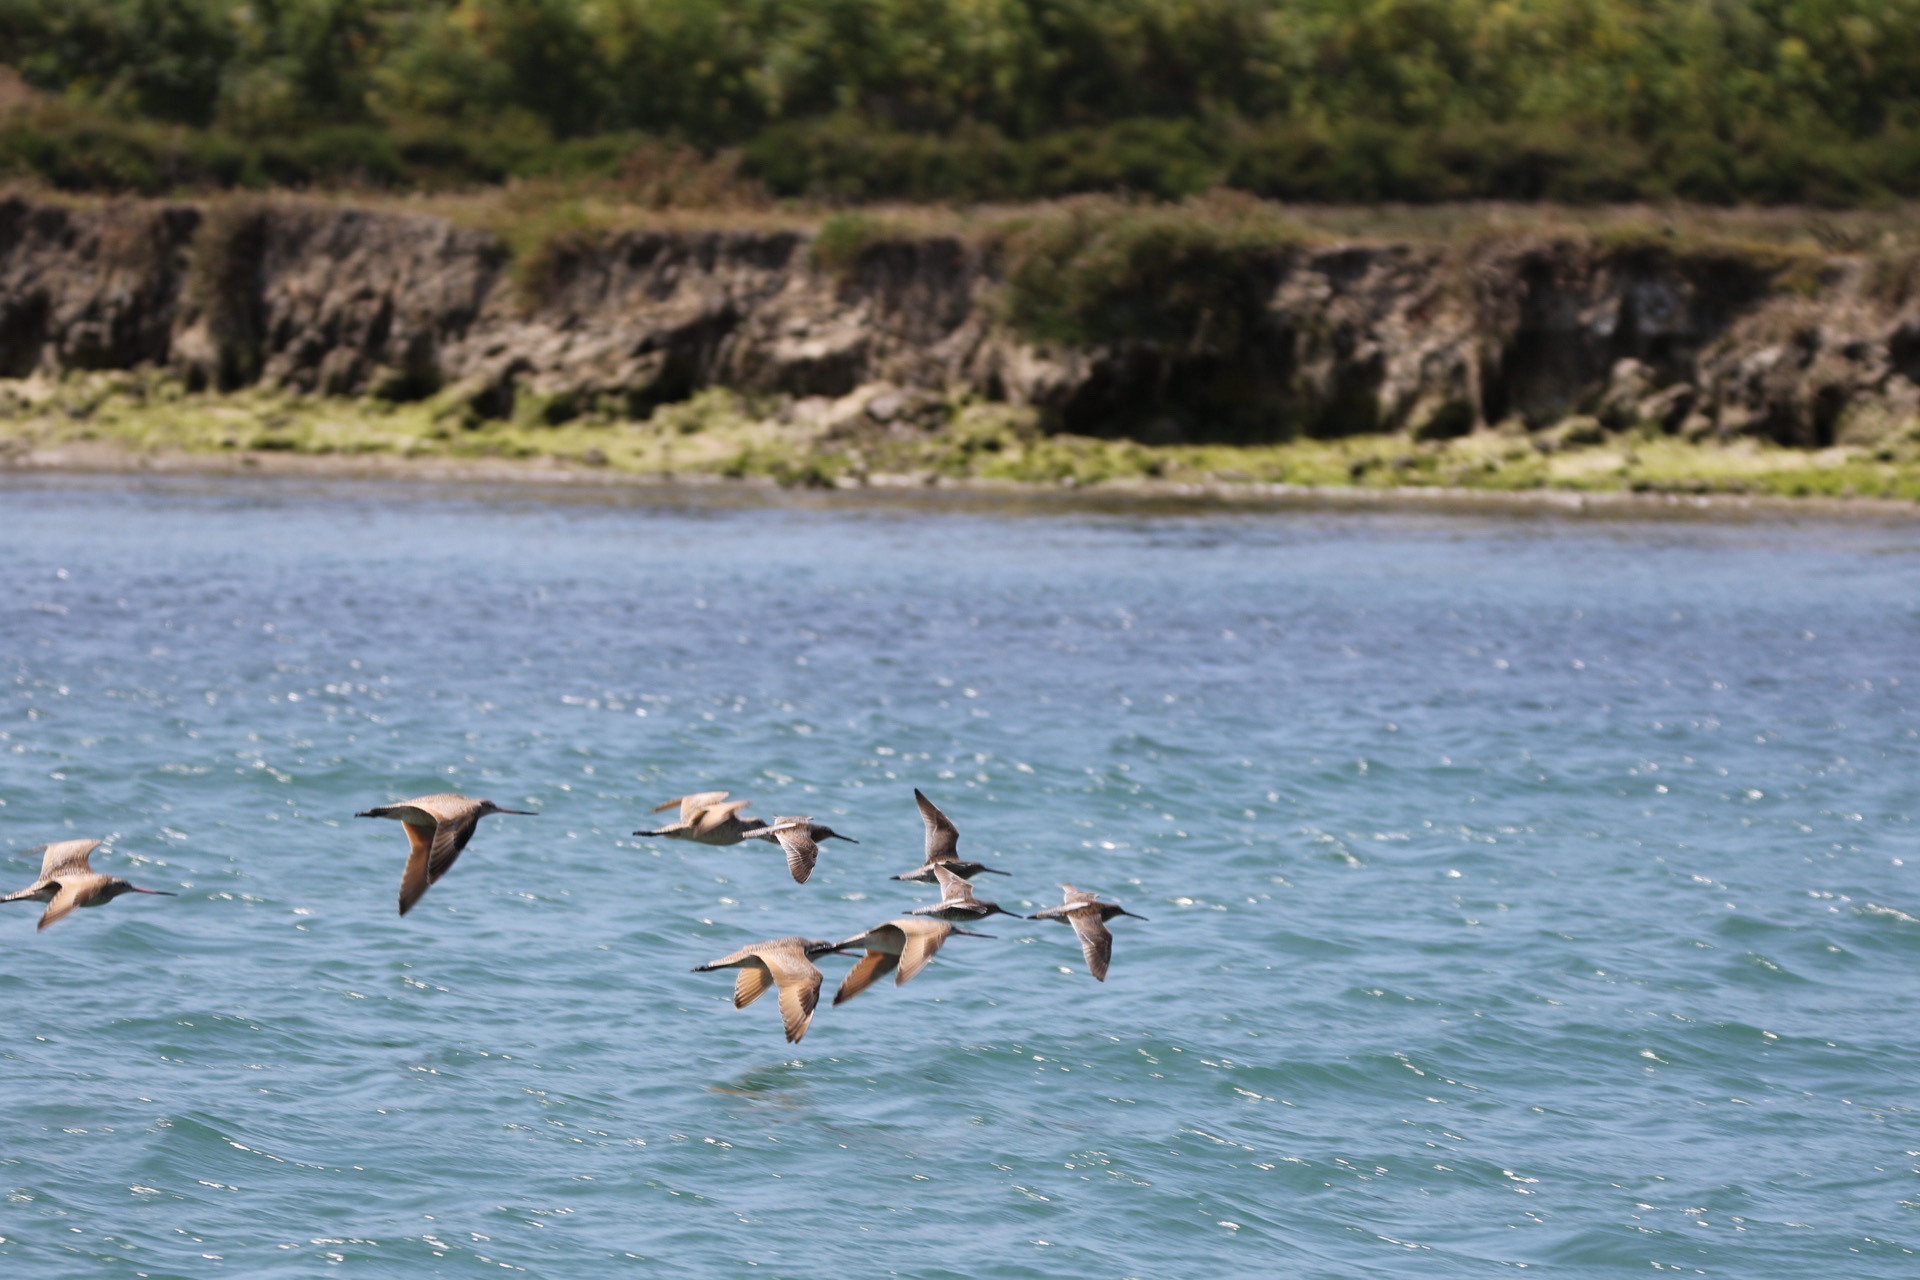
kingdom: Animalia
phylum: Chordata
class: Aves
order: Charadriiformes
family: Scolopacidae
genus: Limosa
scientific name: Limosa fedoa
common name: Marbled godwit
